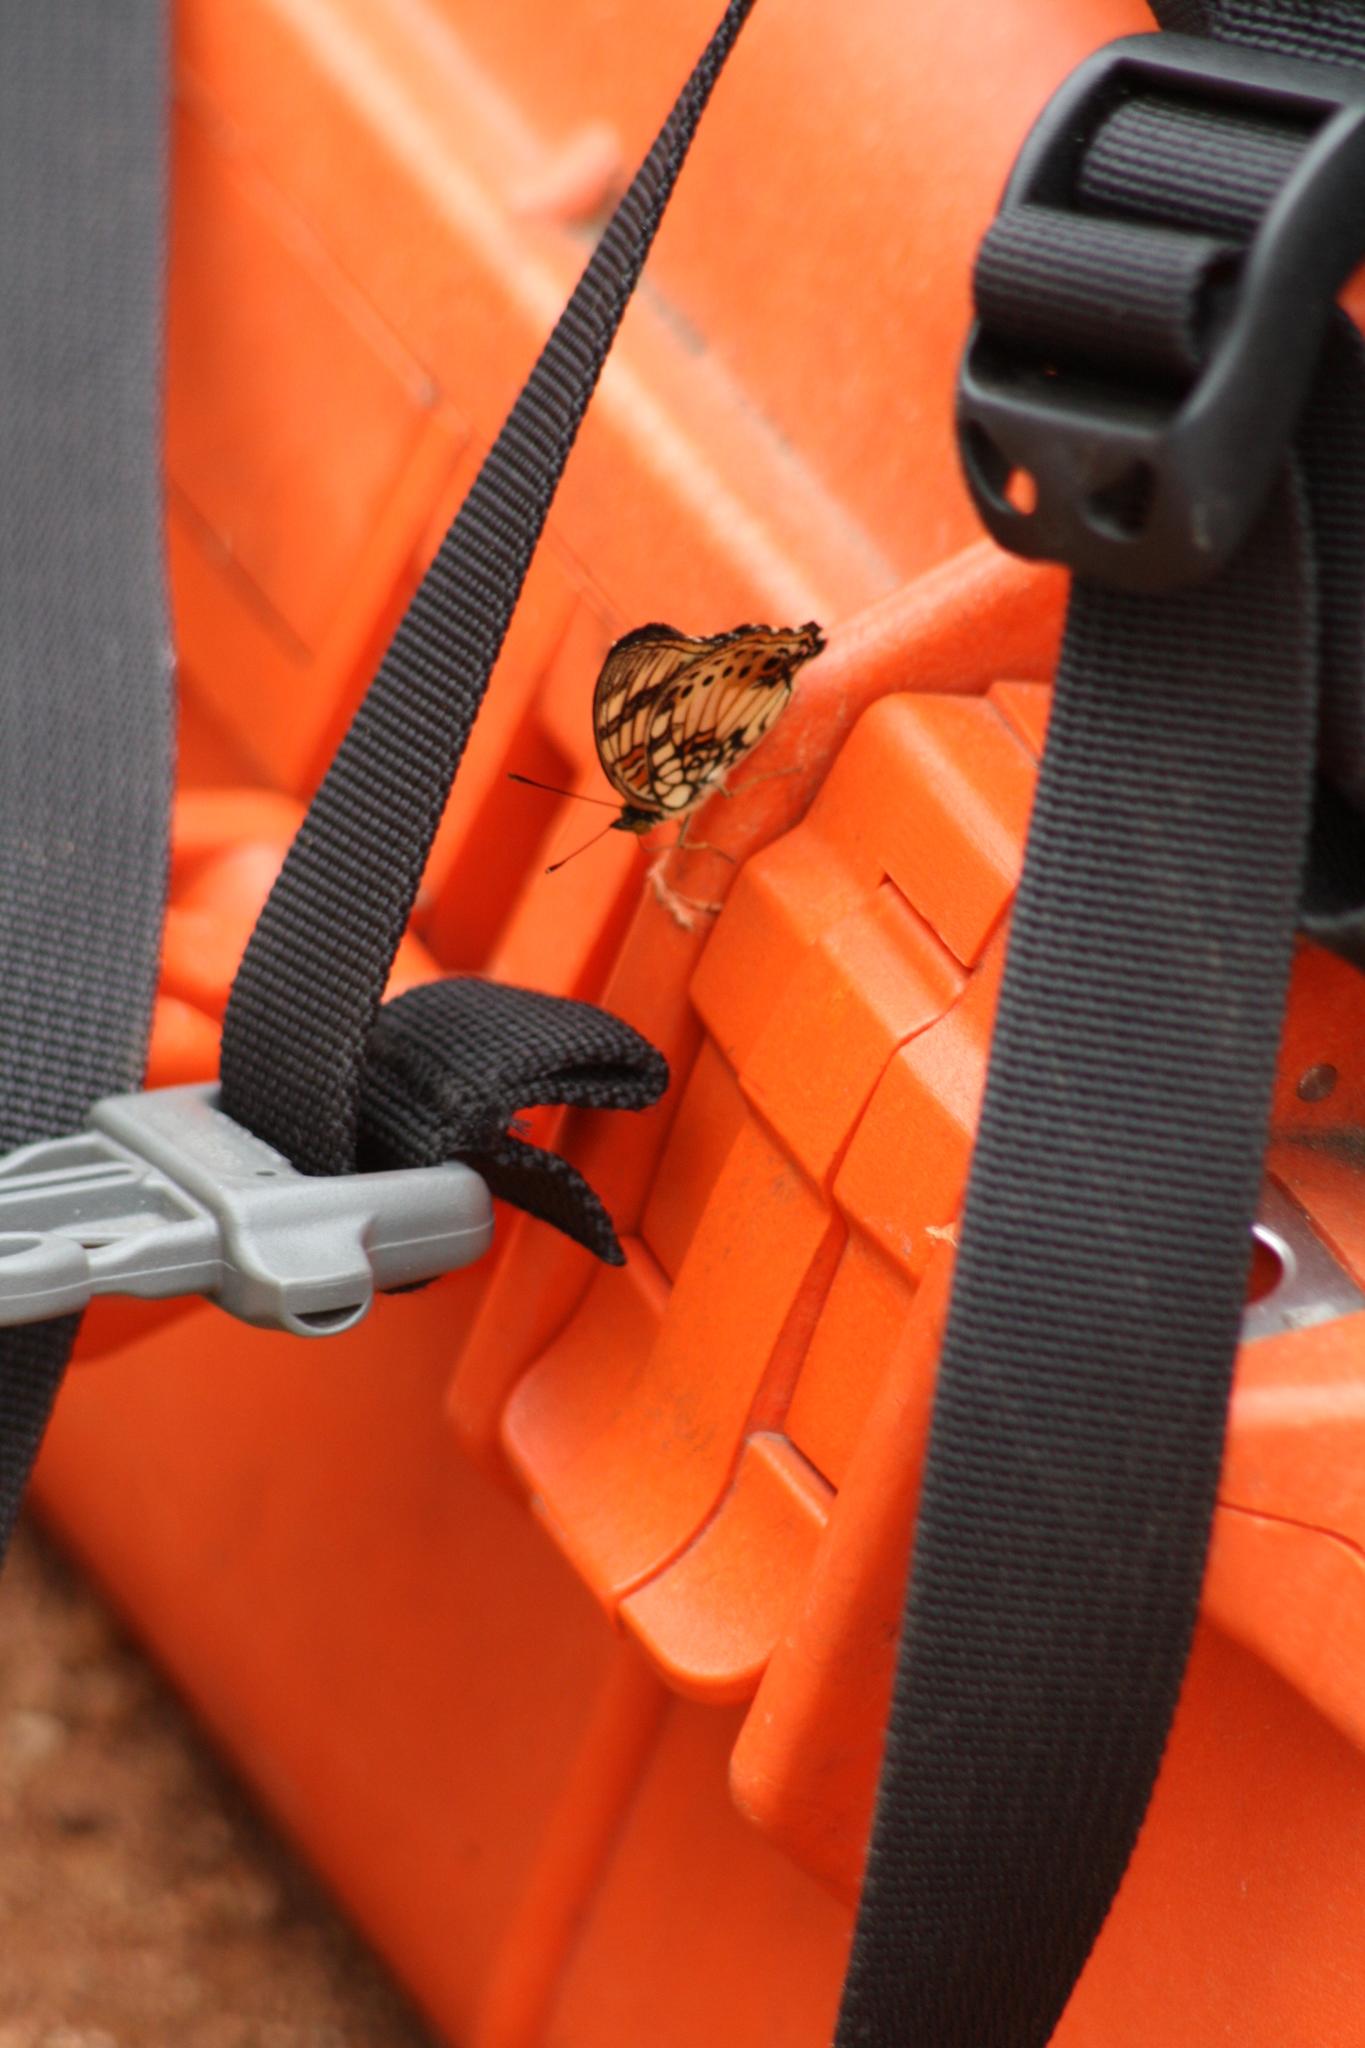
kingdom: Animalia
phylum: Arthropoda
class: Insecta
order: Lepidoptera
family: Nymphalidae
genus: Junonia
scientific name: Junonia sophia
